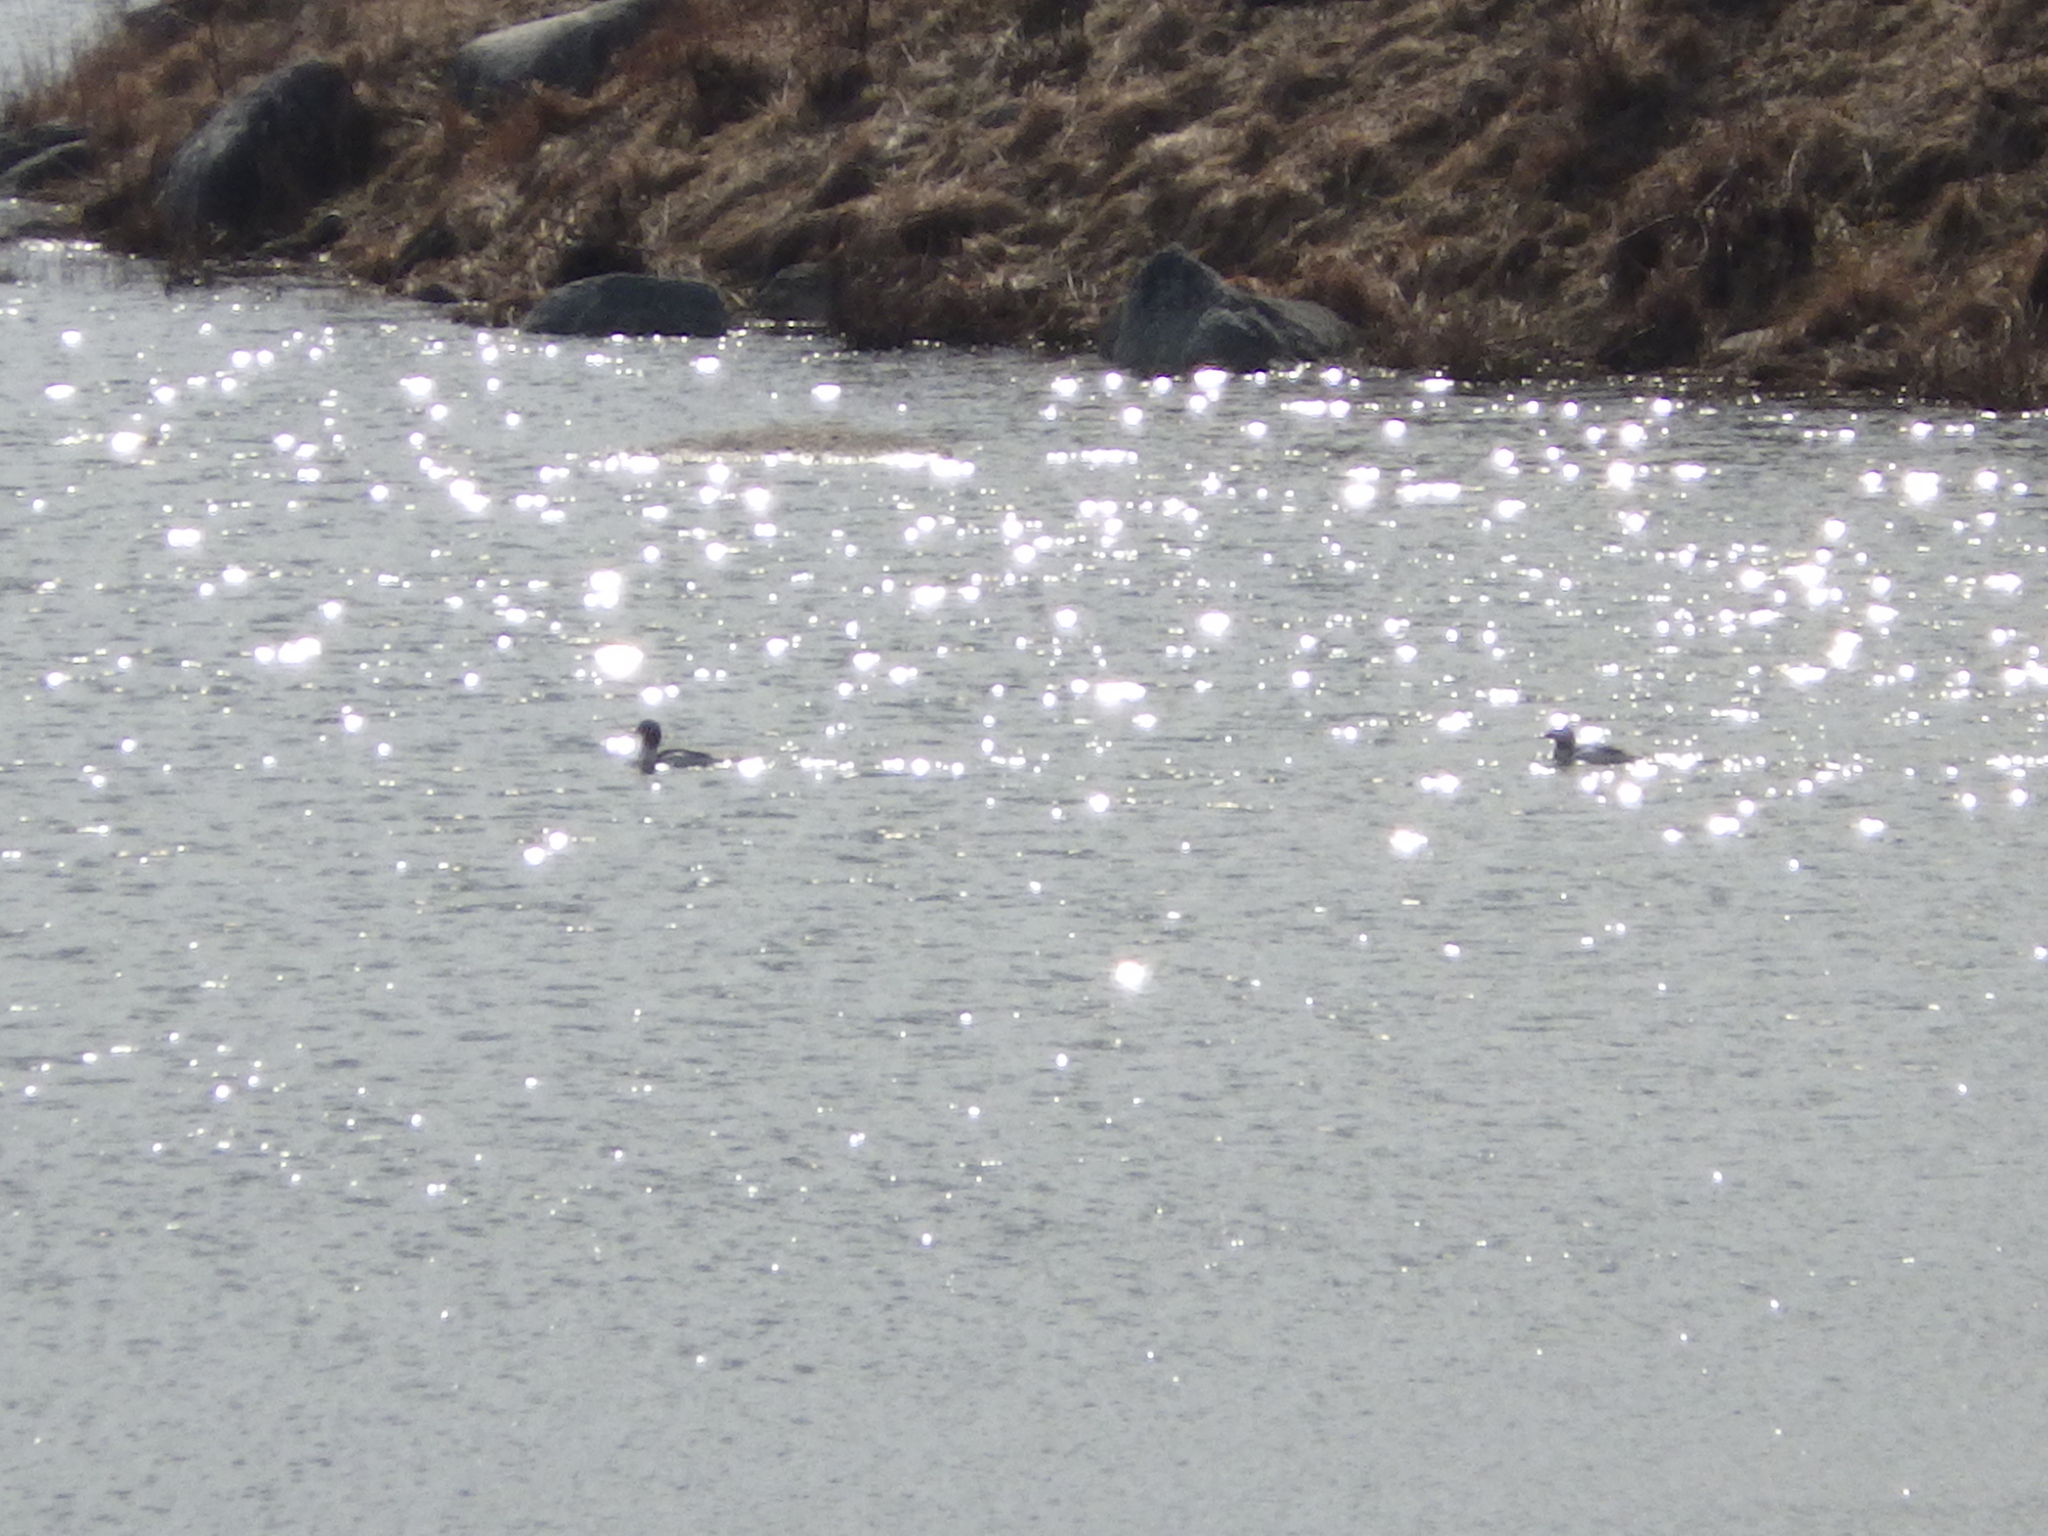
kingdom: Animalia
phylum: Chordata
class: Aves
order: Anseriformes
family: Anatidae
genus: Mergus
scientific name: Mergus merganser
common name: Common merganser
